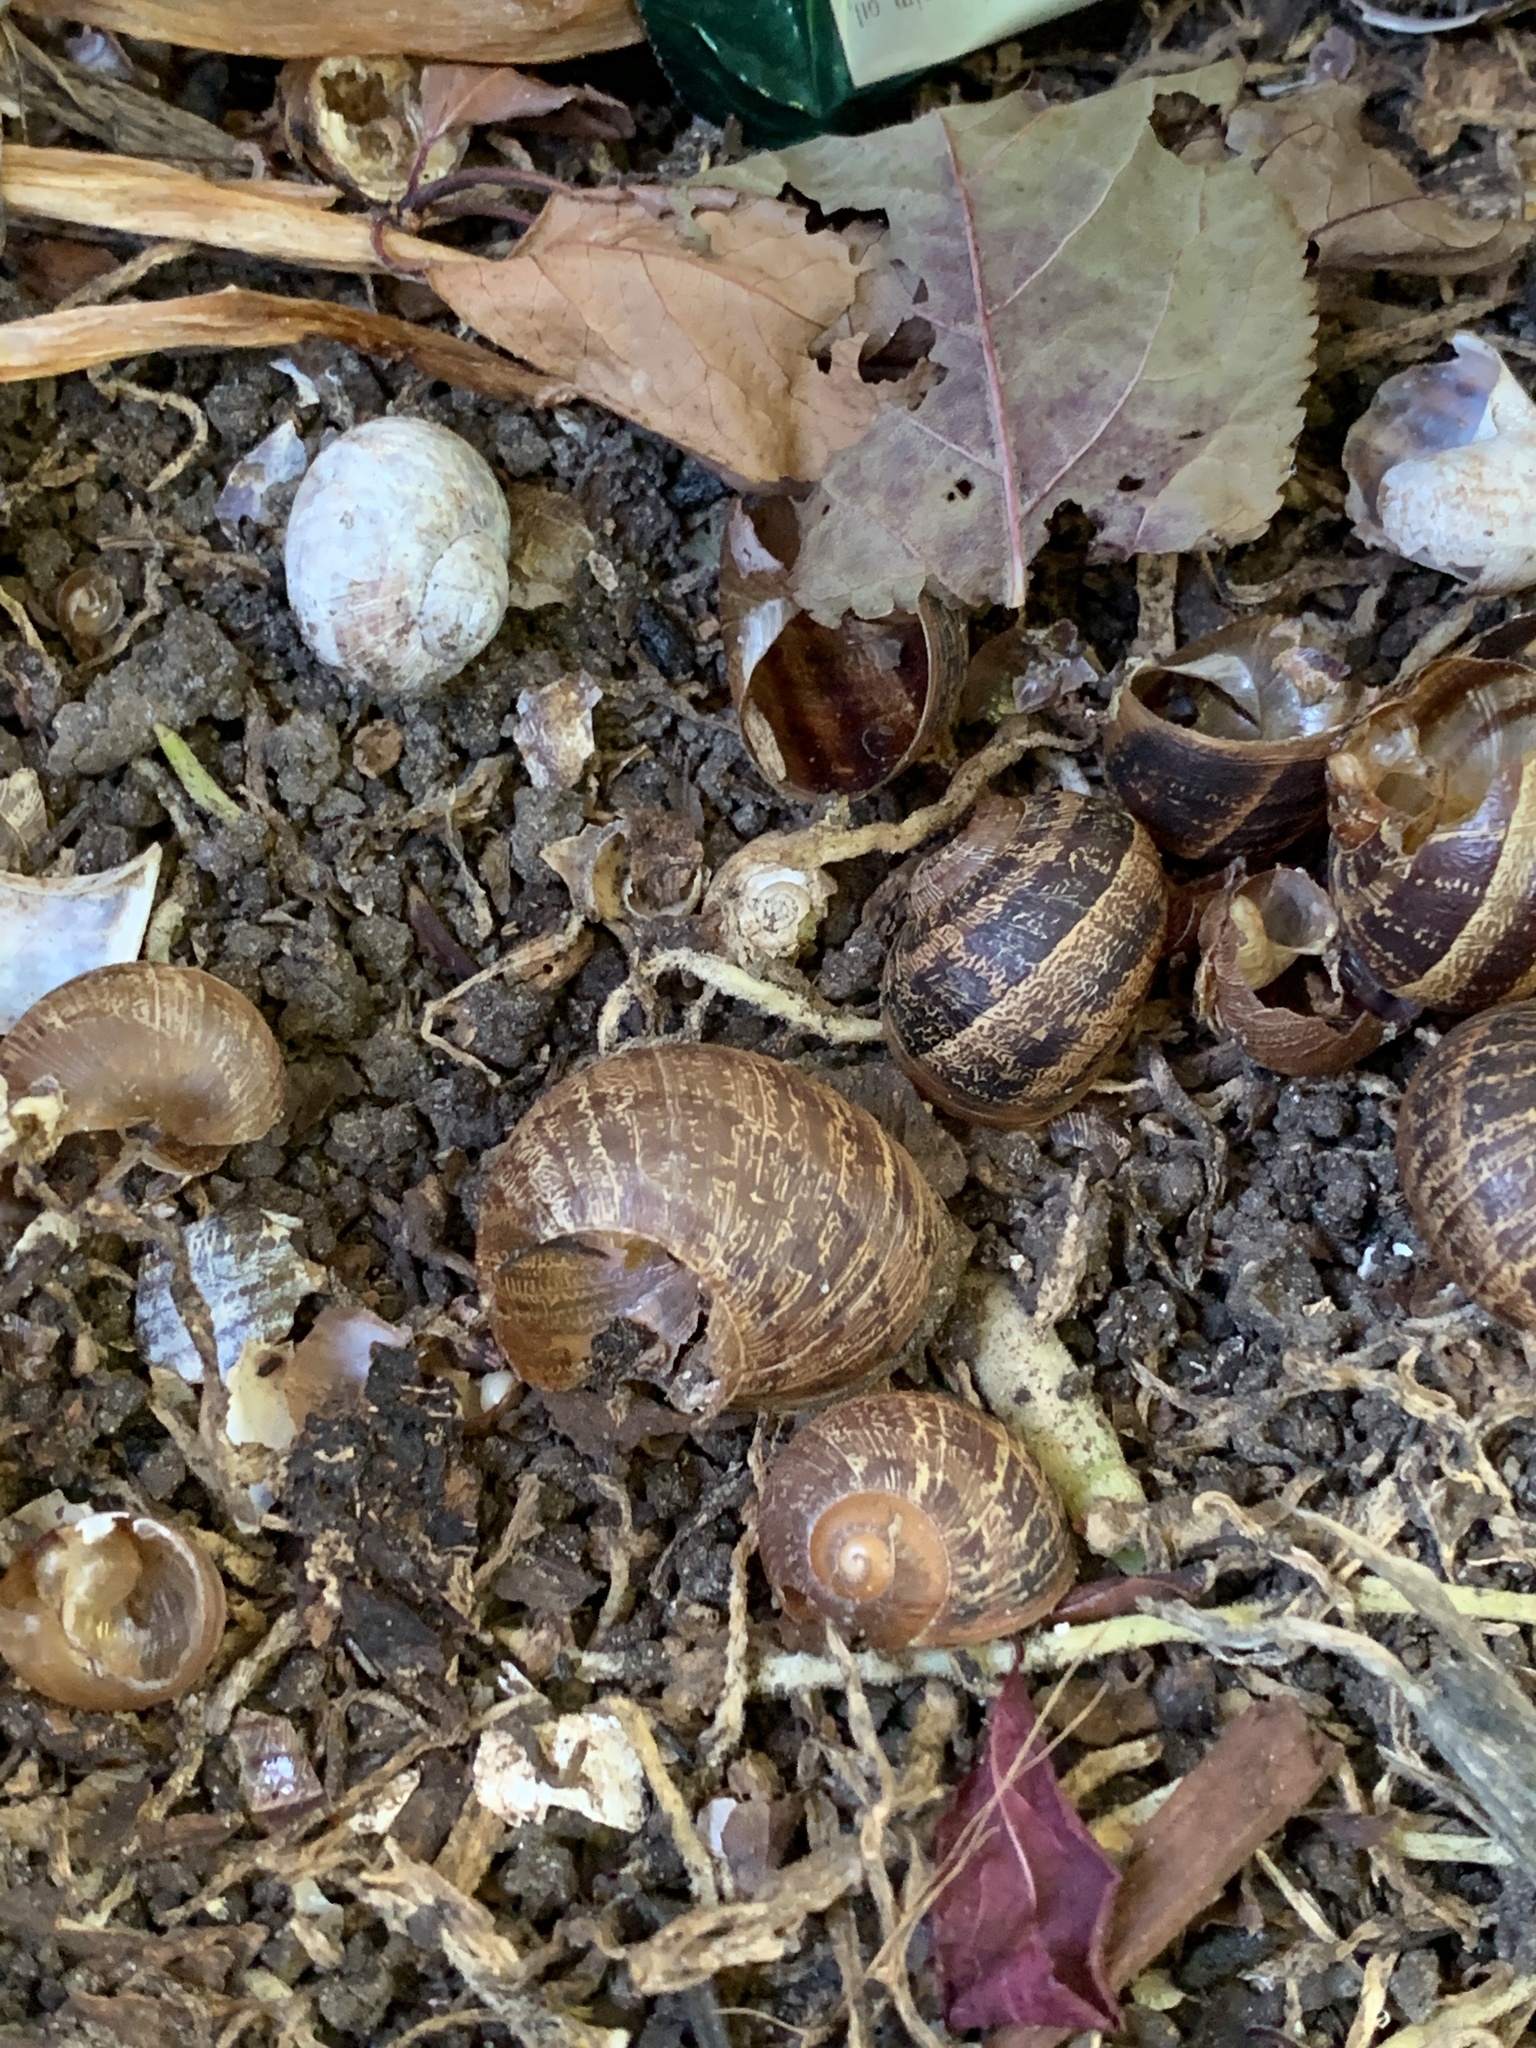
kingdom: Animalia
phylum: Mollusca
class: Gastropoda
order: Stylommatophora
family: Helicidae
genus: Cornu
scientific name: Cornu aspersum
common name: Brown garden snail
